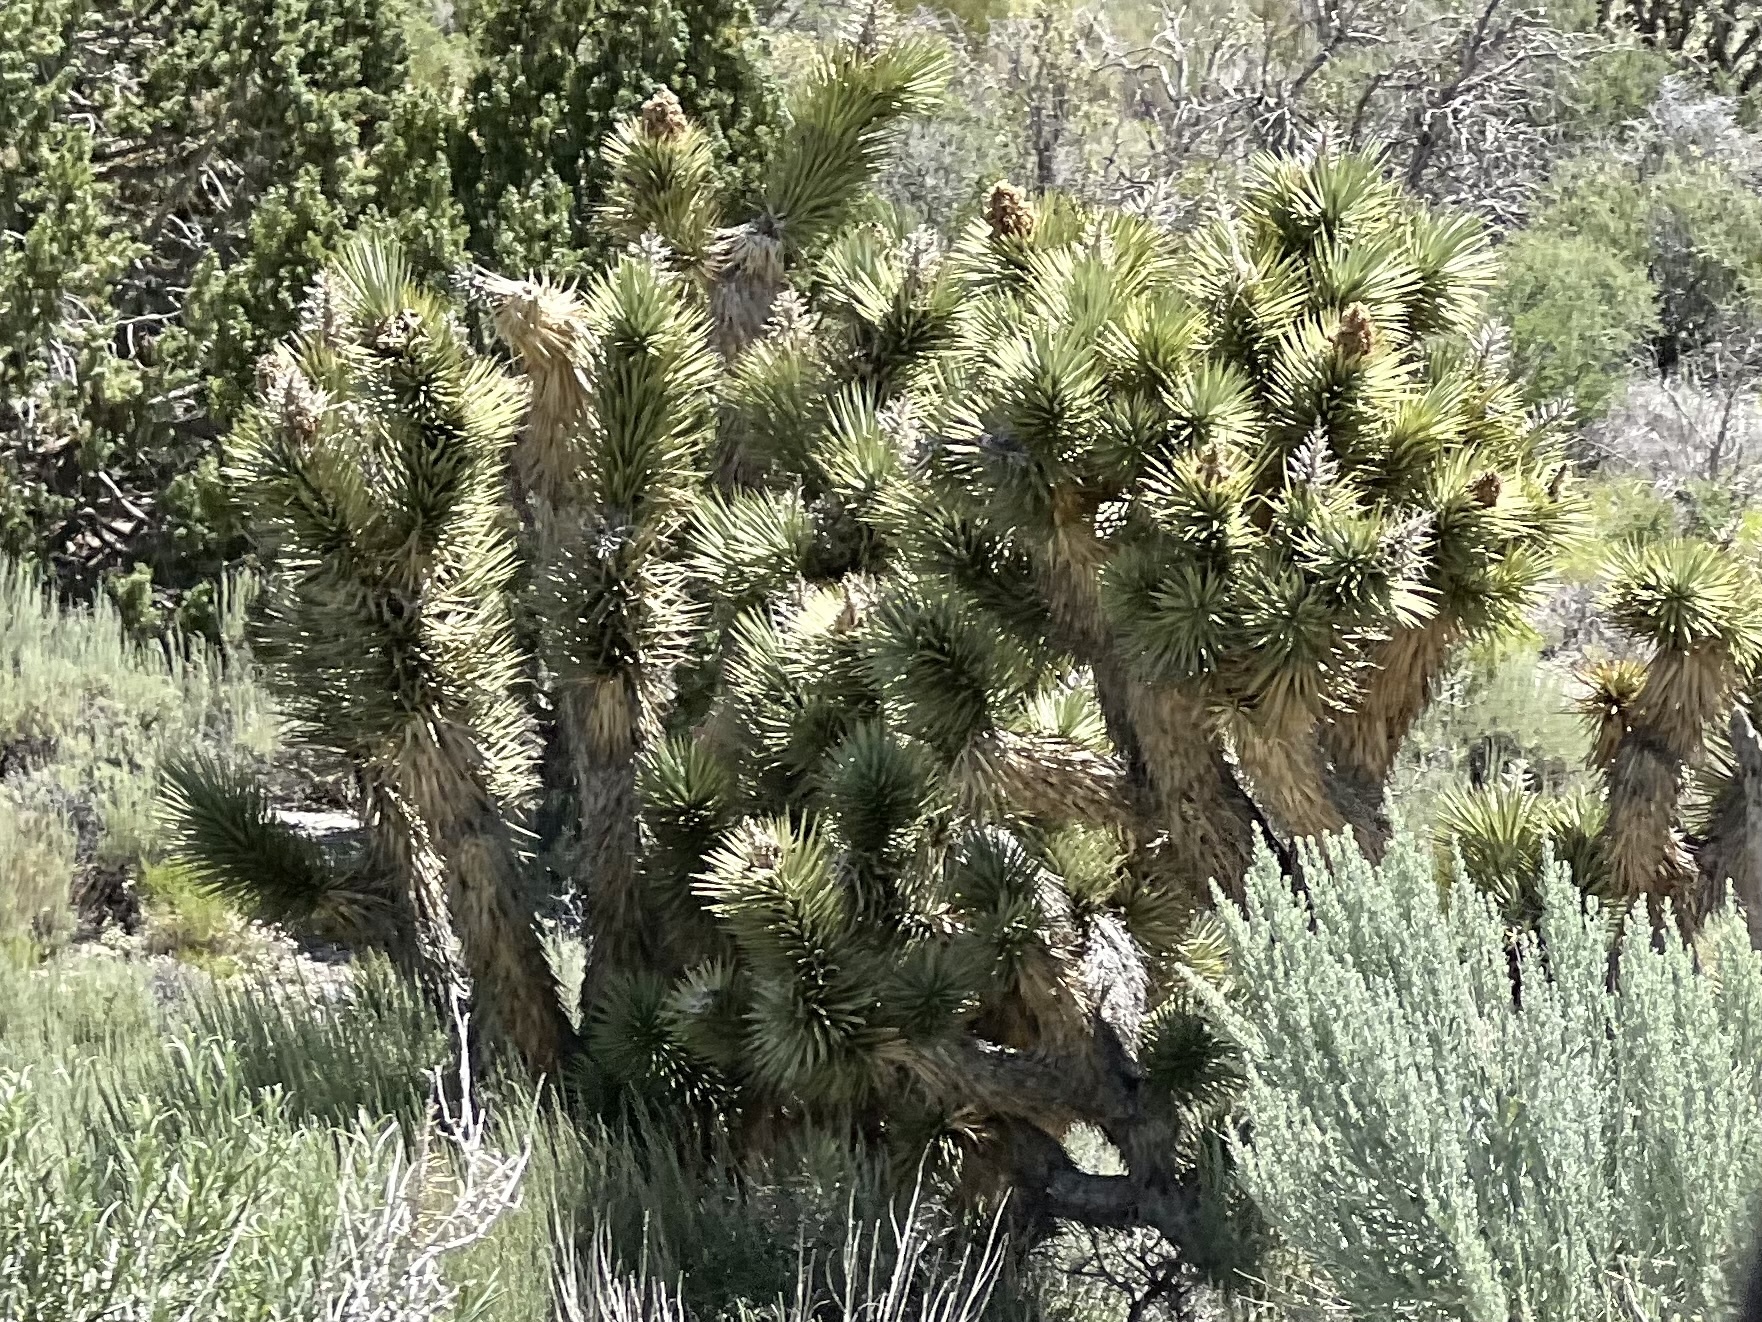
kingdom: Plantae
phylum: Tracheophyta
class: Liliopsida
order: Asparagales
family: Asparagaceae
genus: Yucca
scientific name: Yucca brevifolia
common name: Joshua tree
